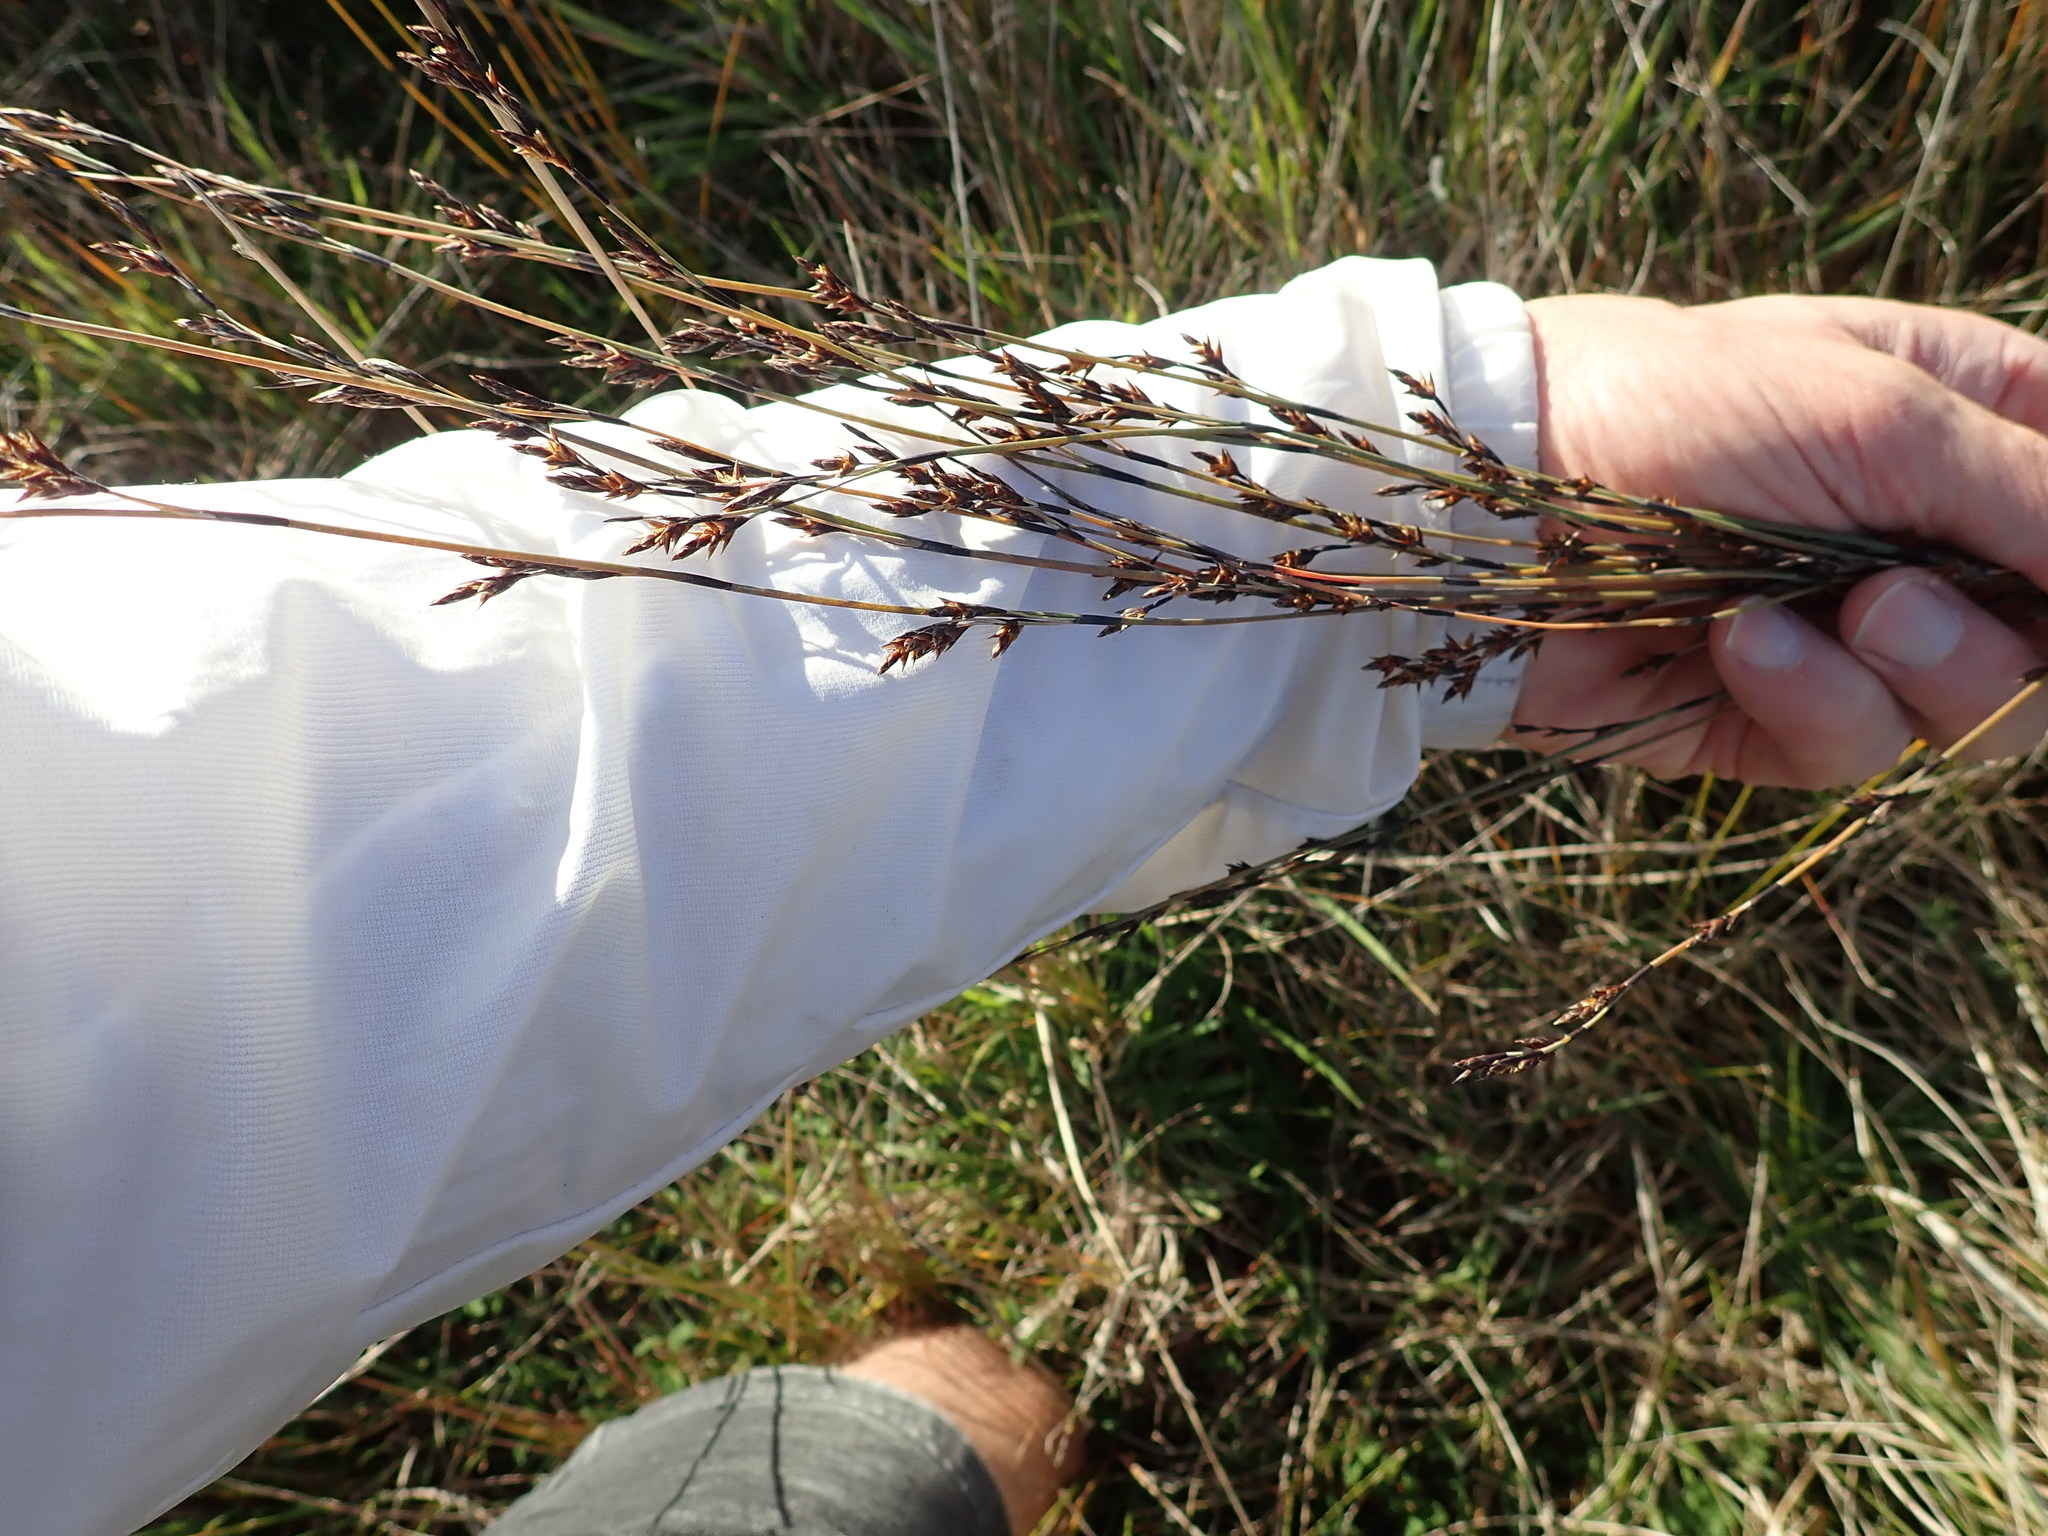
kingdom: Plantae
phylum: Tracheophyta
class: Liliopsida
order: Poales
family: Restionaceae
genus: Apodasmia
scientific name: Apodasmia similis
